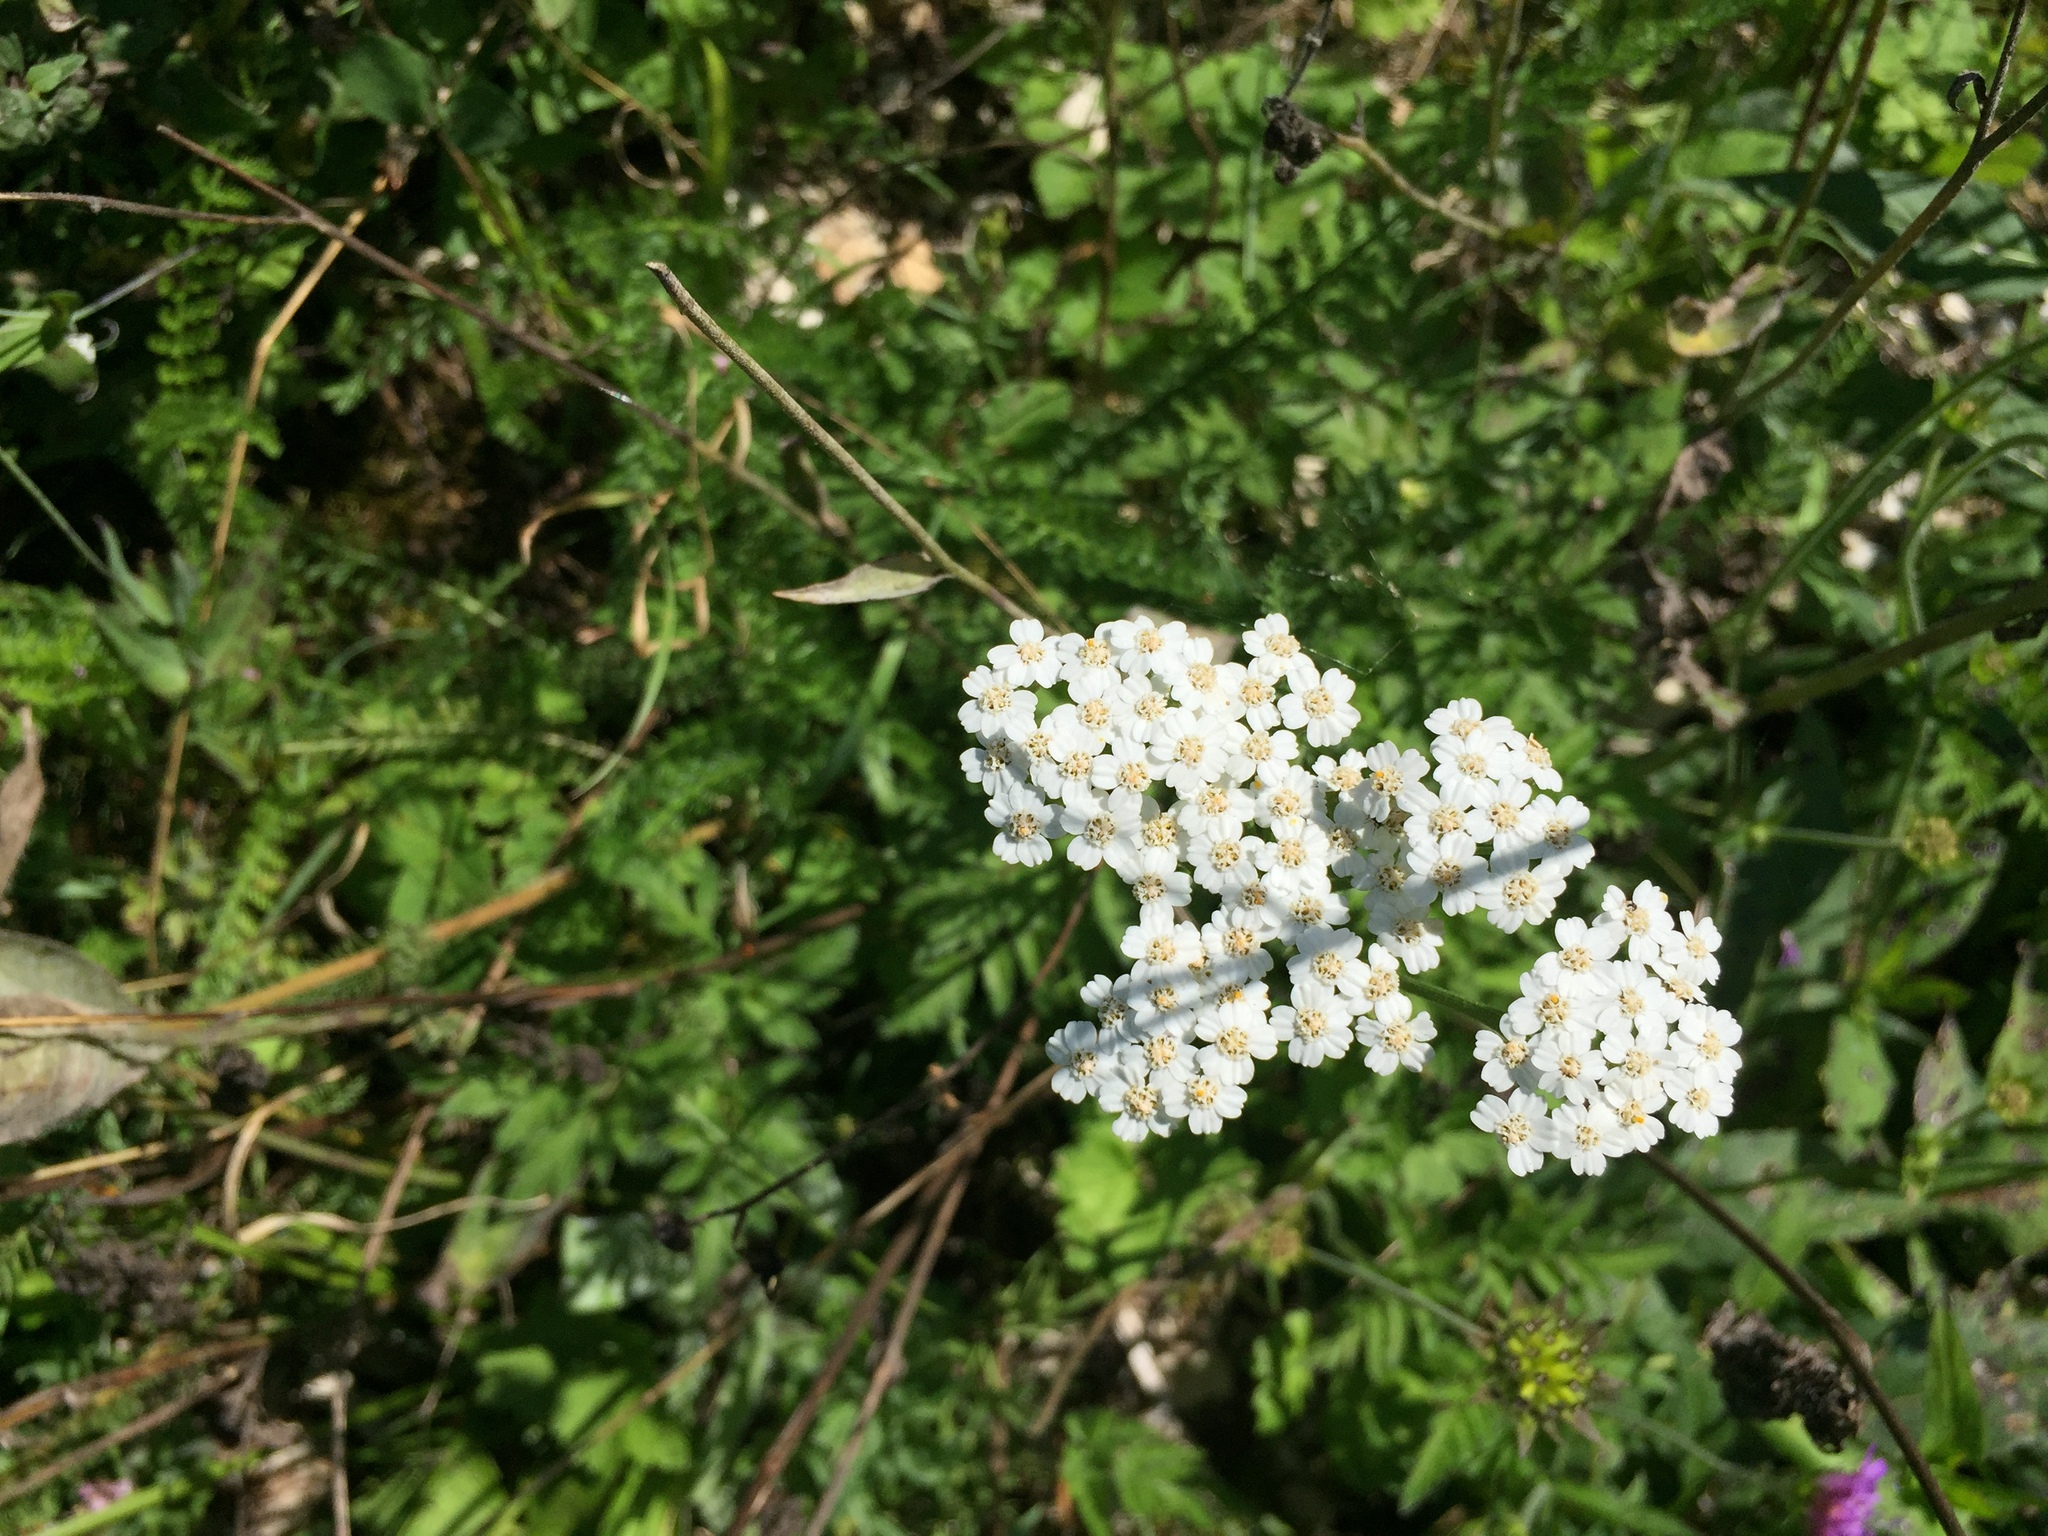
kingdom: Plantae
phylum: Tracheophyta
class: Magnoliopsida
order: Asterales
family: Asteraceae
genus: Achillea
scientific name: Achillea millefolium
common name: Yarrow
